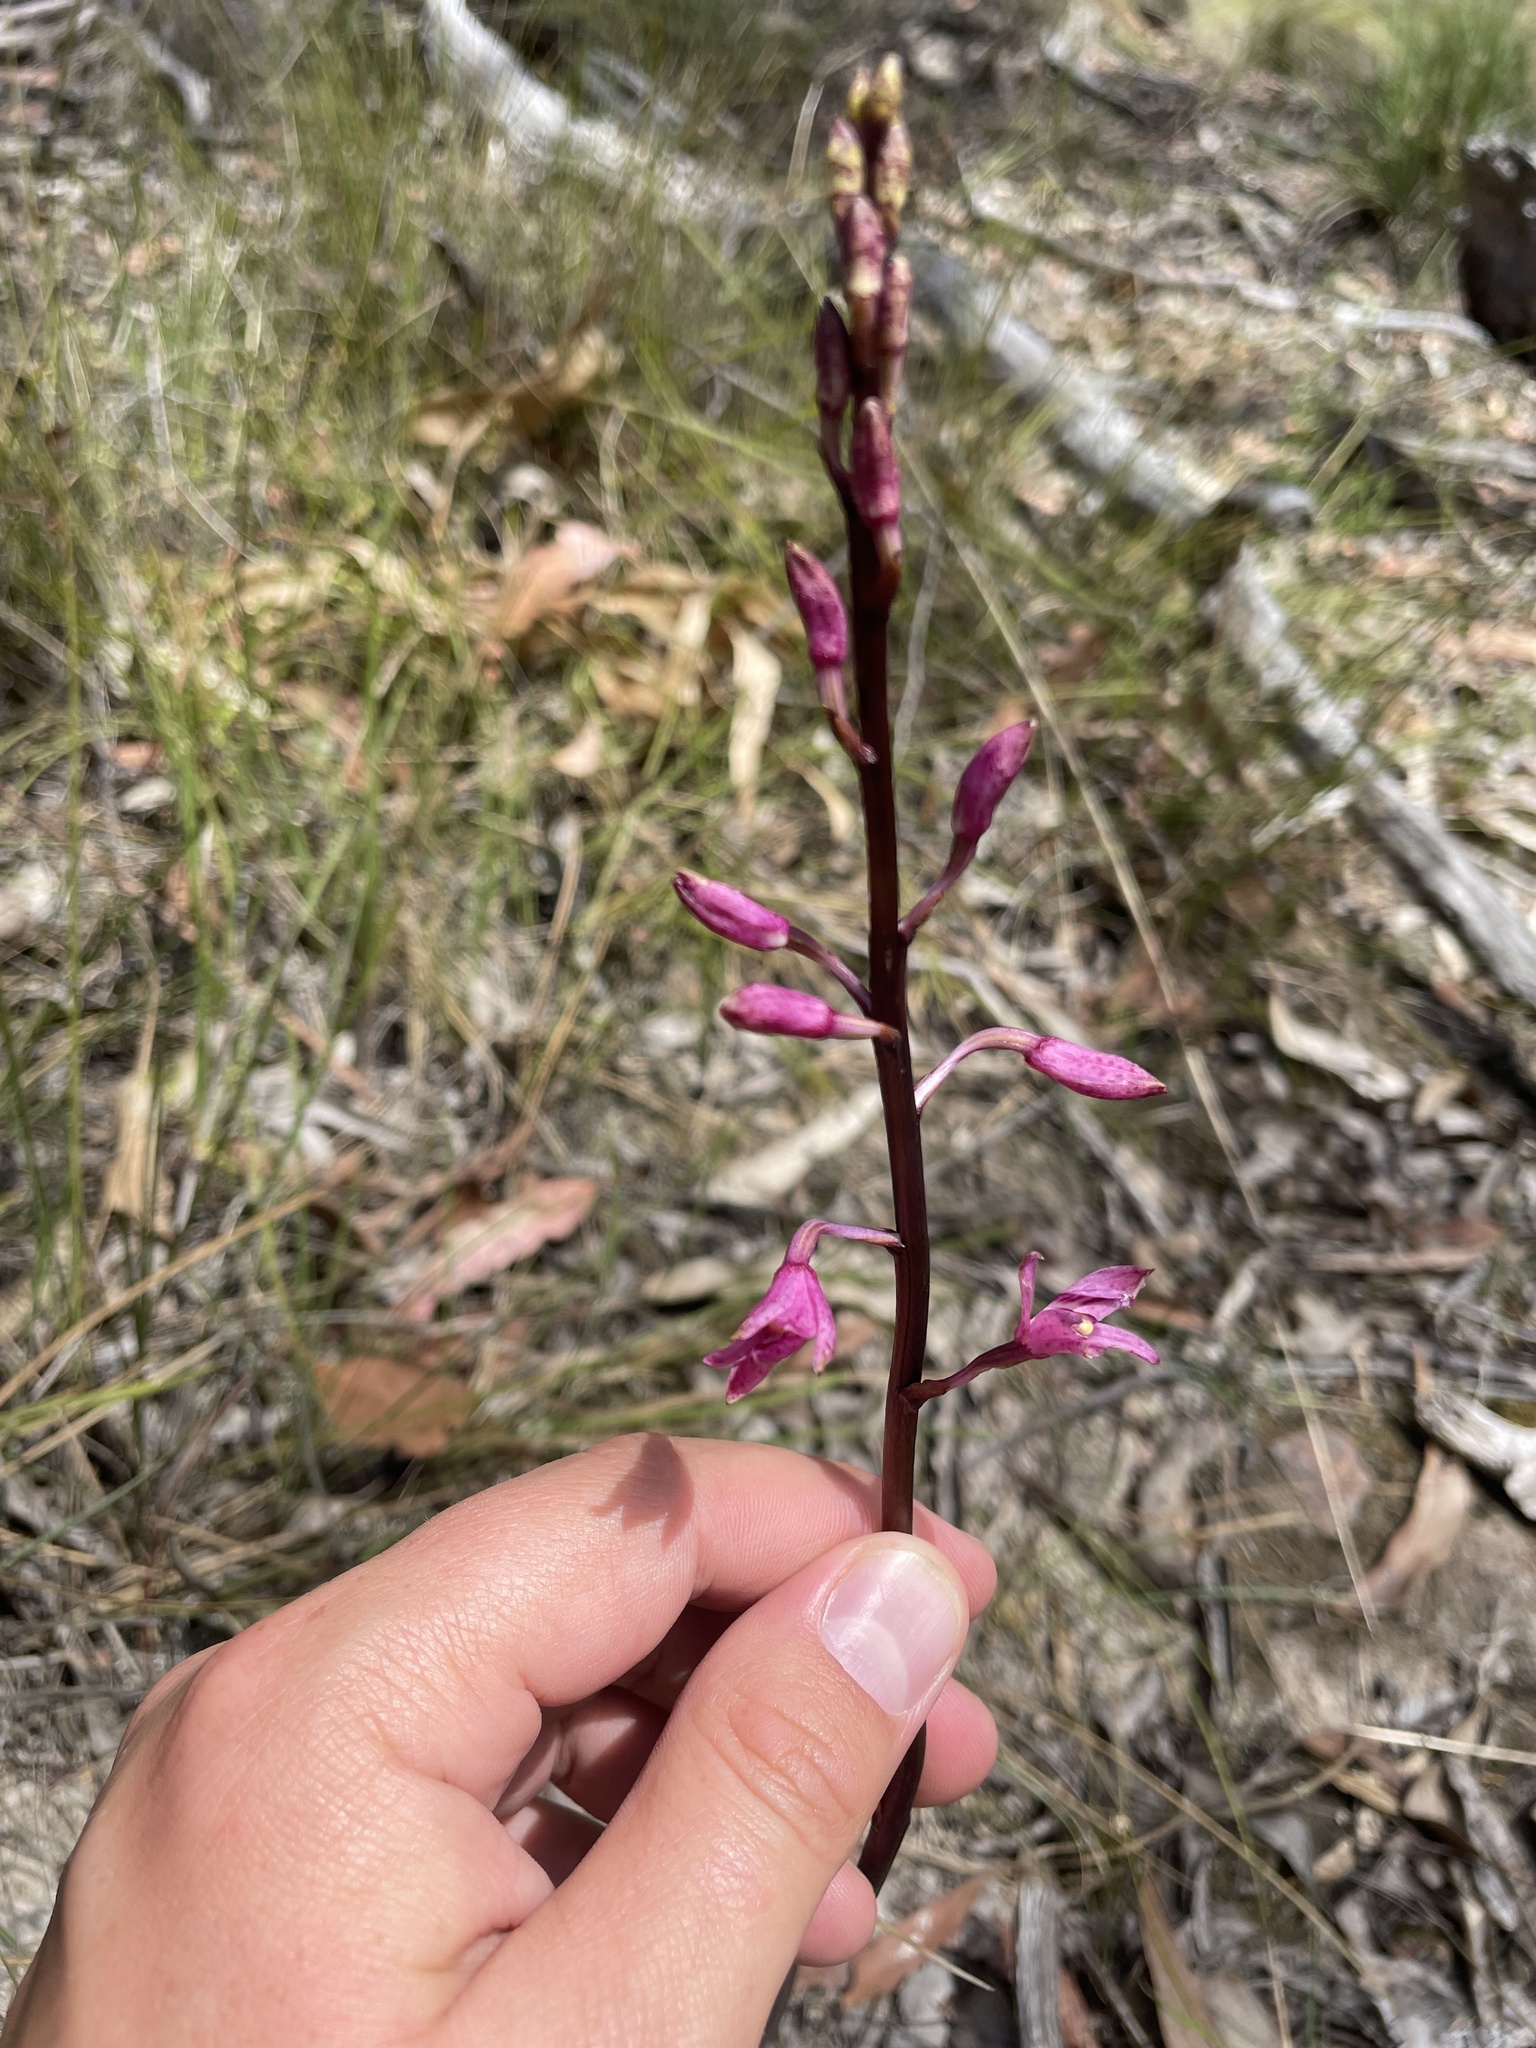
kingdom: Plantae
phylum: Tracheophyta
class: Liliopsida
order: Asparagales
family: Orchidaceae
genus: Dipodium
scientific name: Dipodium roseum
